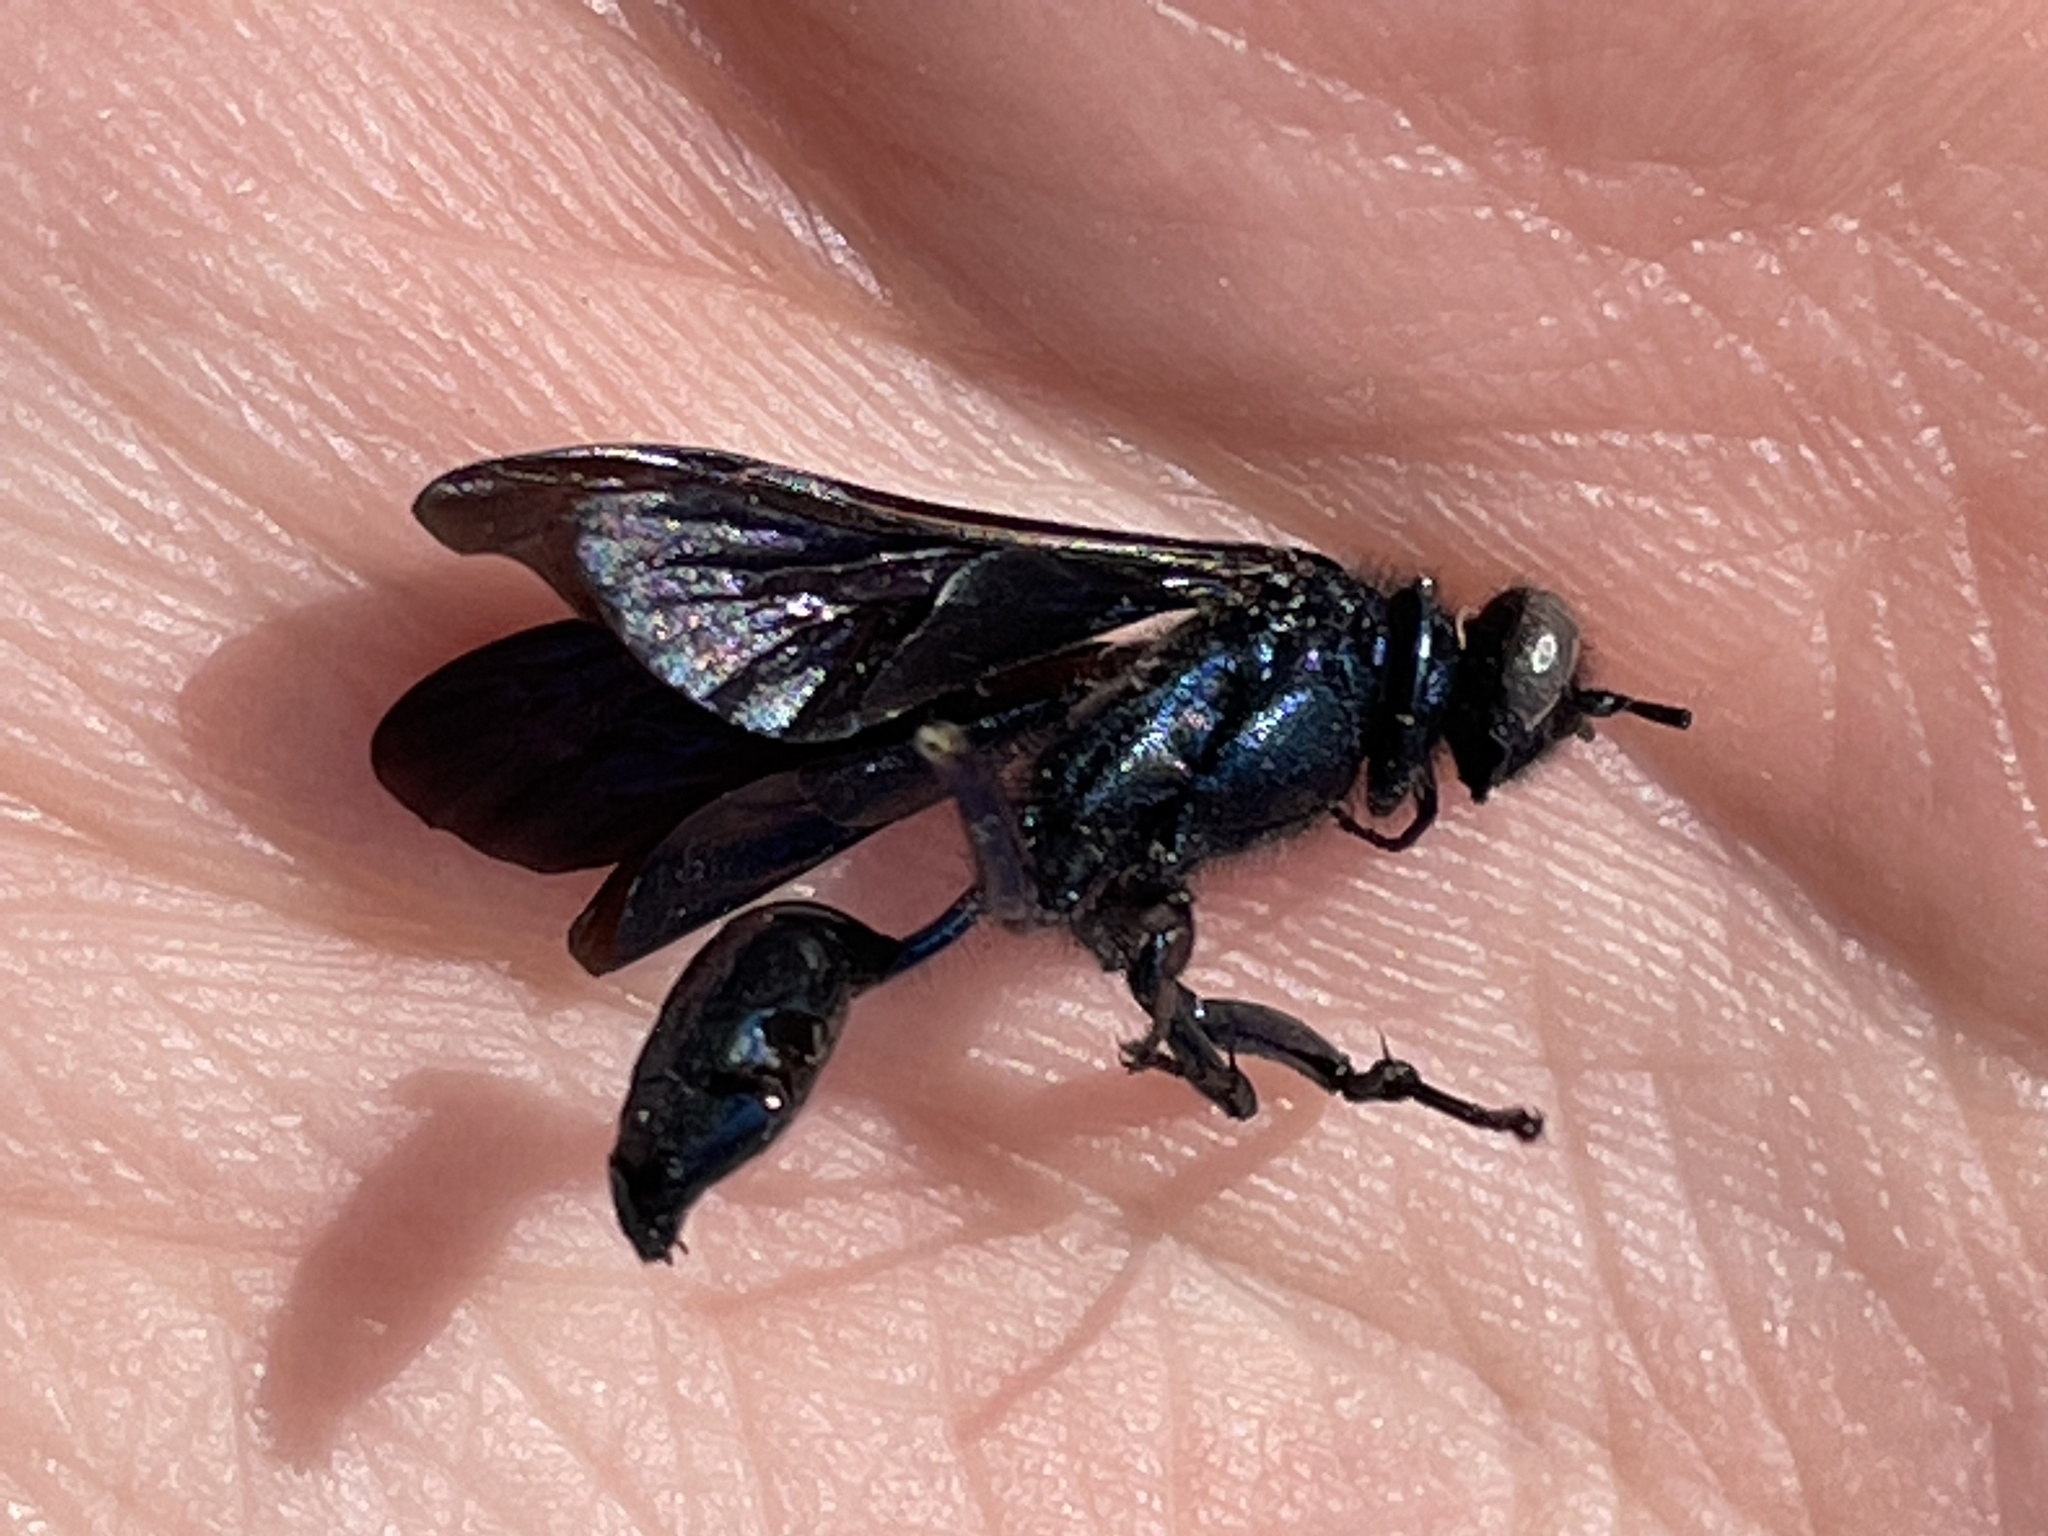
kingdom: Animalia
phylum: Arthropoda
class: Insecta
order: Hymenoptera
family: Sphecidae
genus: Chalybion
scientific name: Chalybion californicum
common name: Mud dauber
